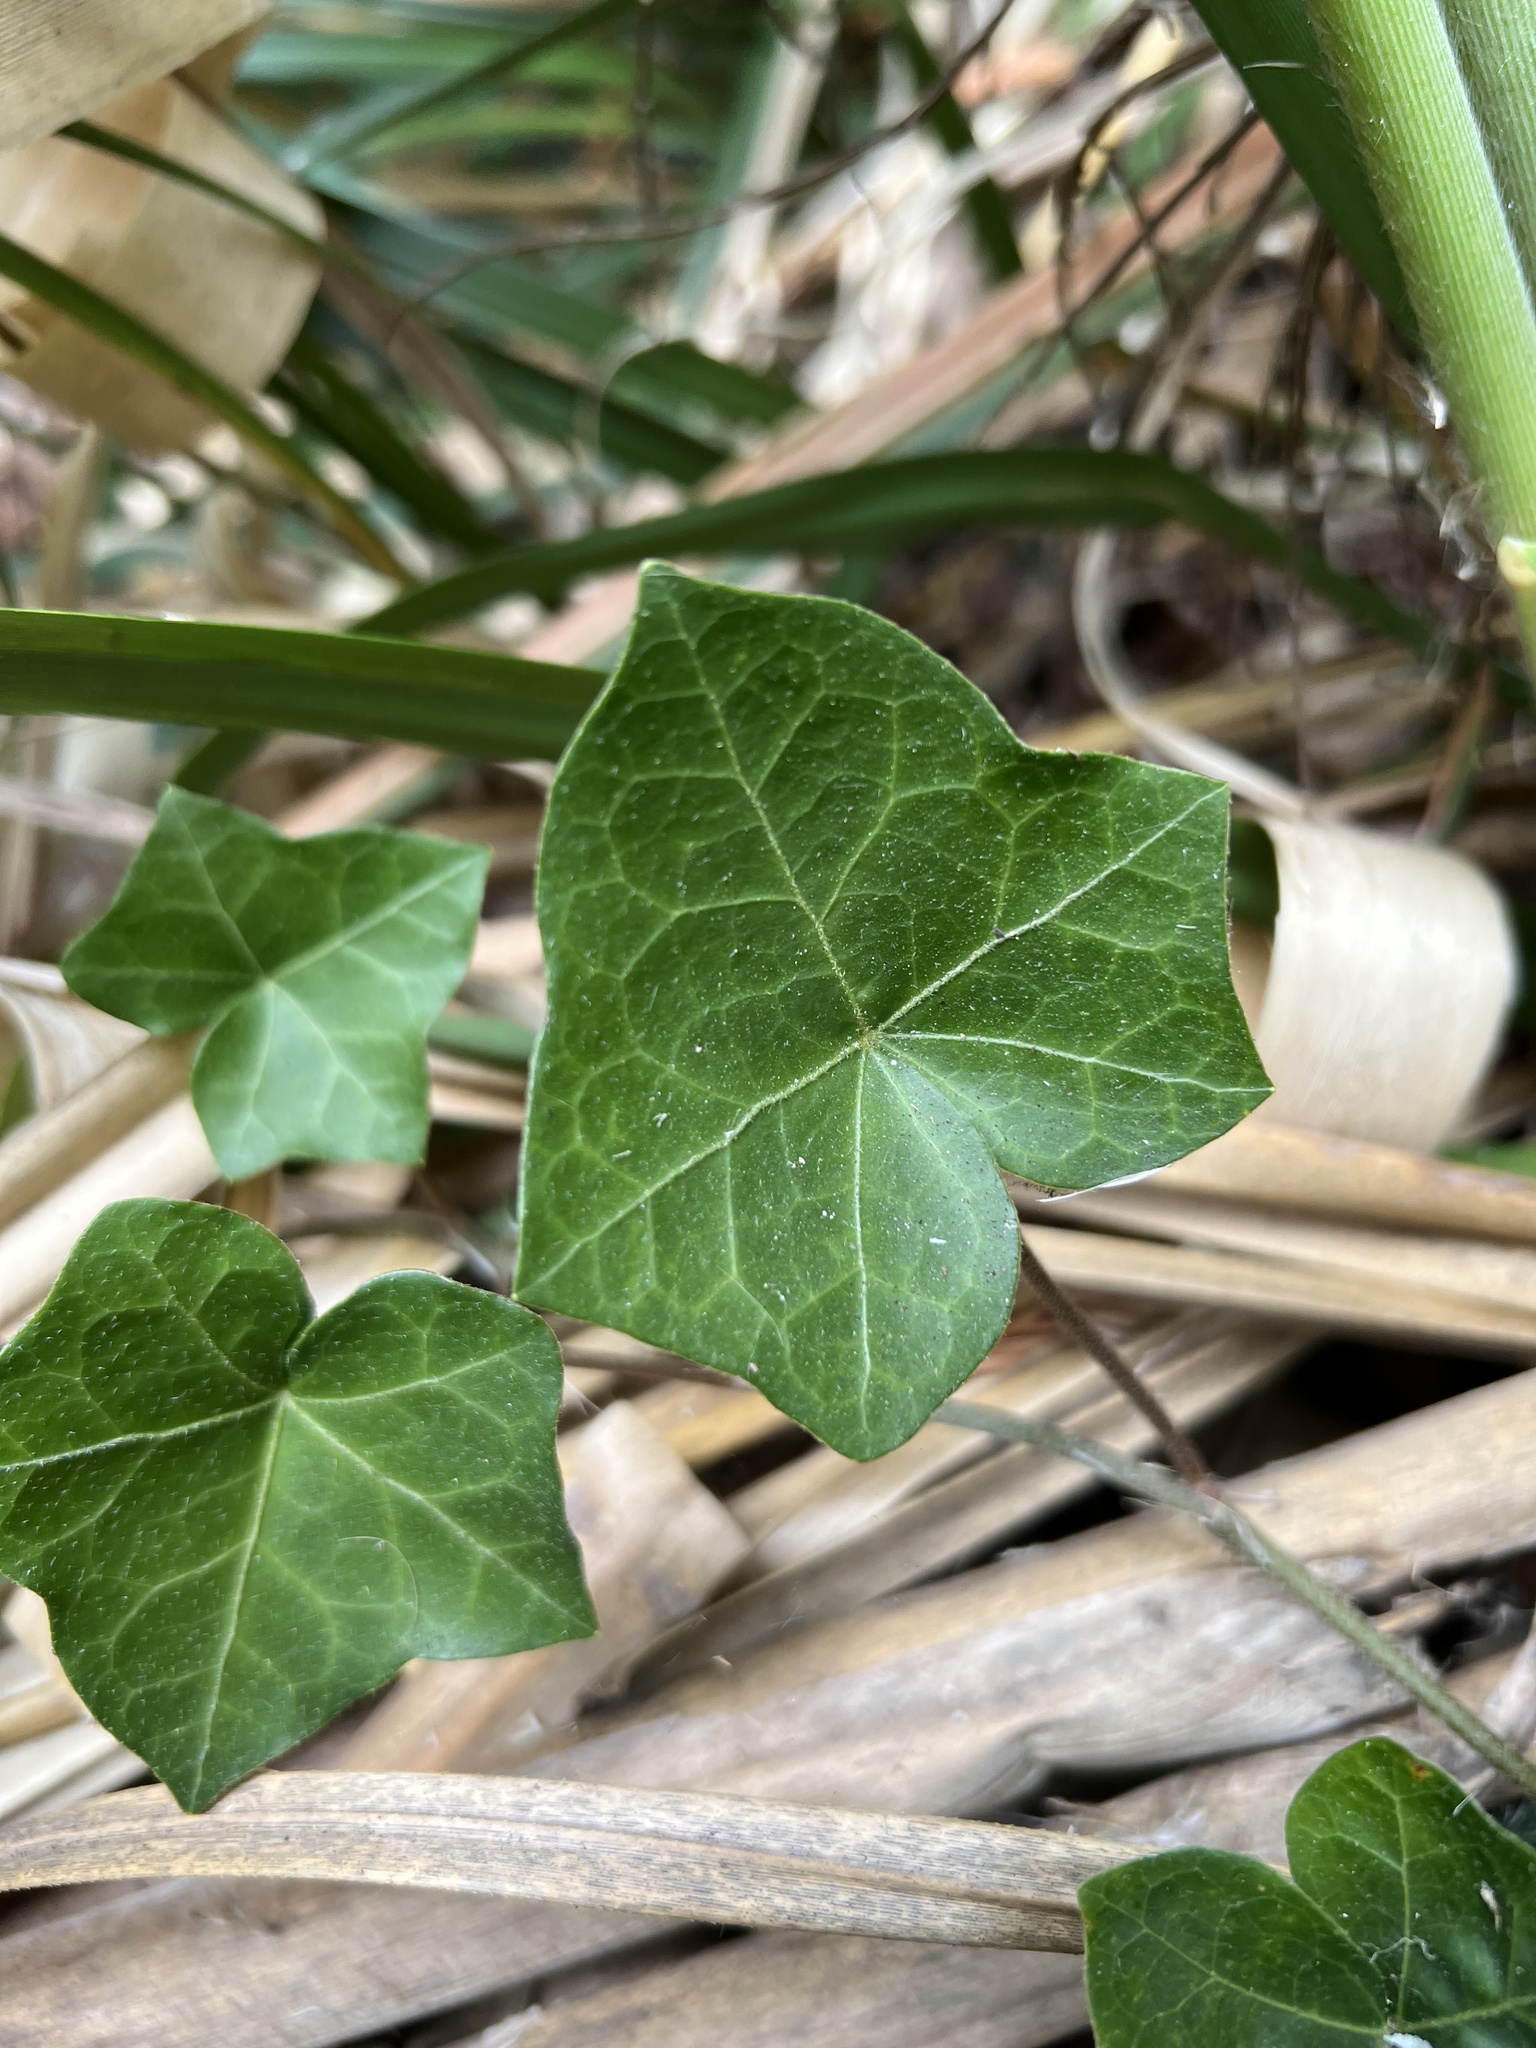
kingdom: Plantae
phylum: Tracheophyta
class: Magnoliopsida
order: Apiales
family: Araliaceae
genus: Hedera
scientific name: Hedera helix
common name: Ivy
